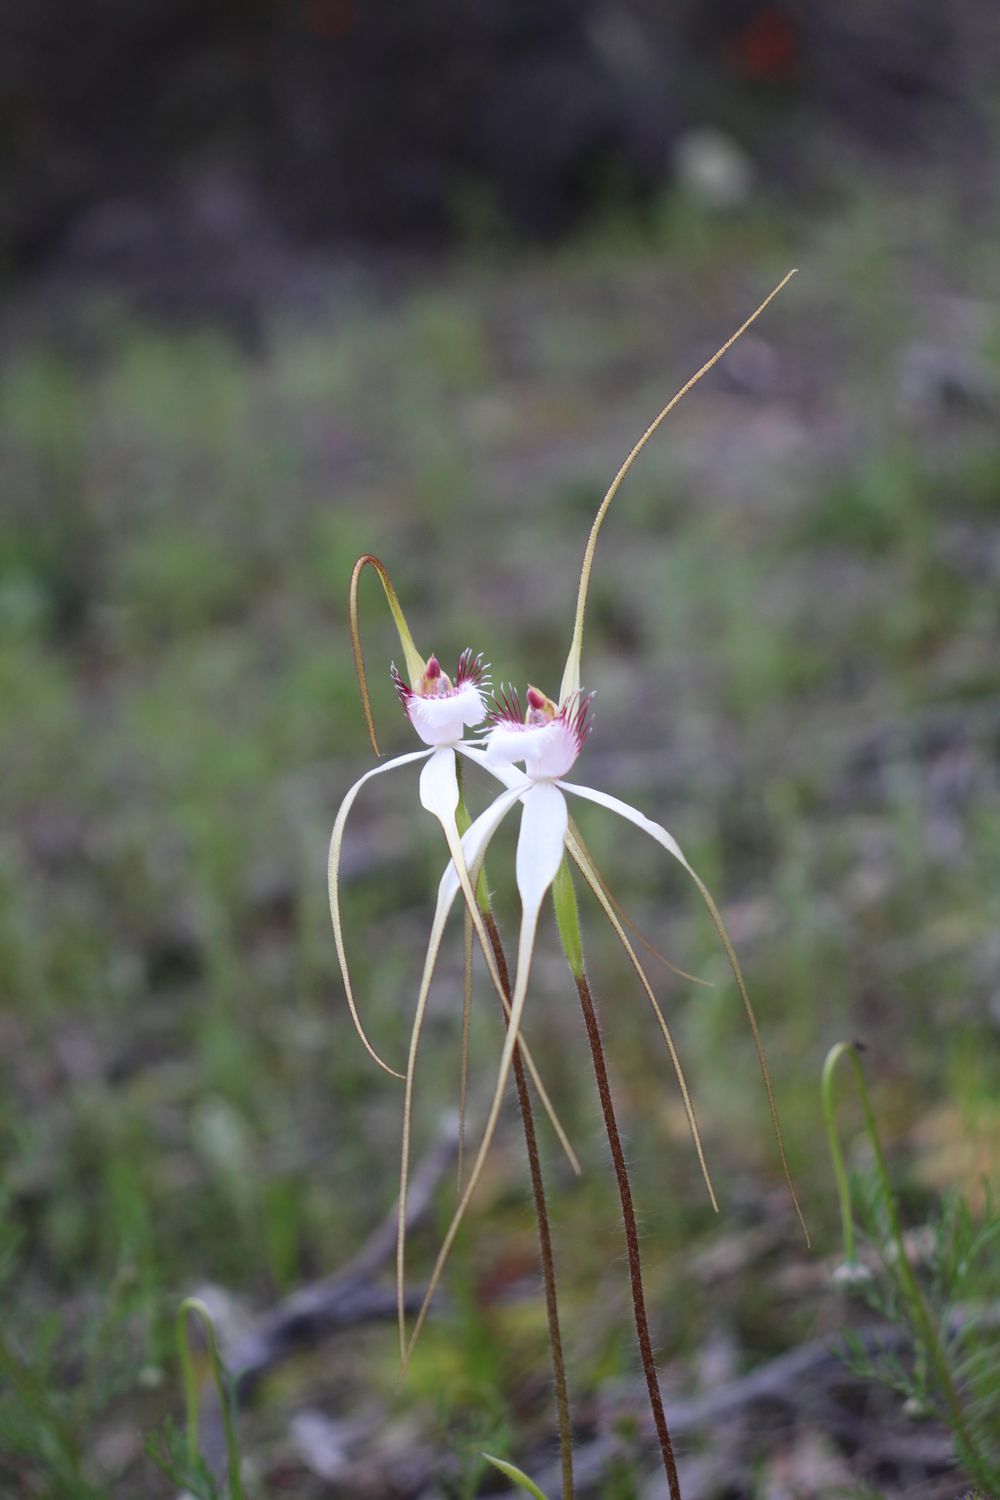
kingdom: Plantae
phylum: Tracheophyta
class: Liliopsida
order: Asparagales
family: Orchidaceae
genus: Caladenia
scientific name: Caladenia longicauda
